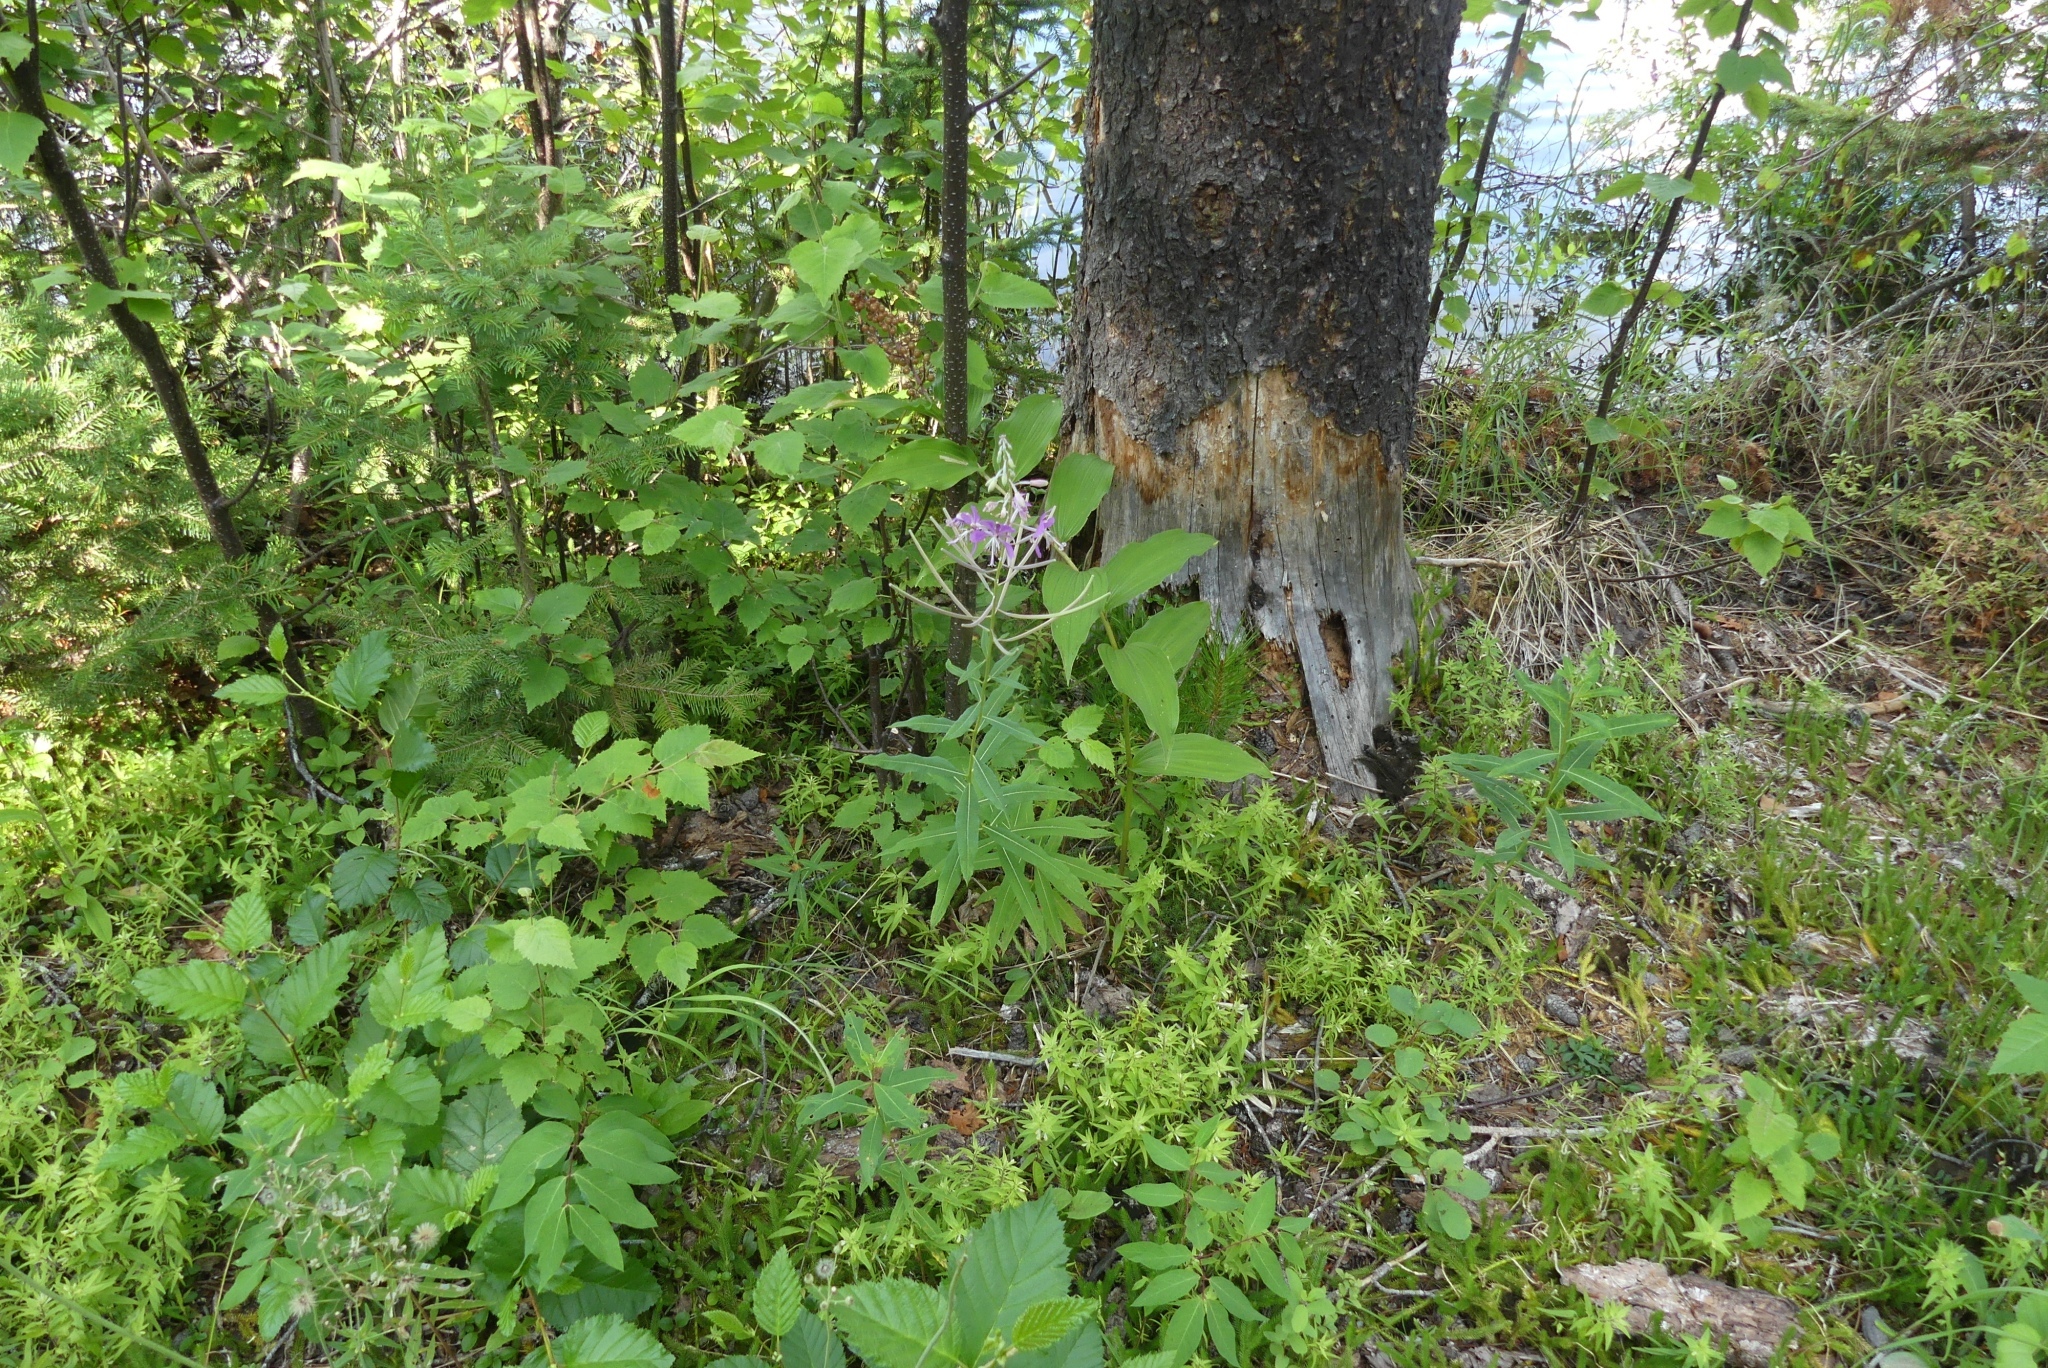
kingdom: Plantae
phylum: Tracheophyta
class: Magnoliopsida
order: Myrtales
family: Onagraceae
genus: Chamaenerion
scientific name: Chamaenerion angustifolium
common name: Fireweed
